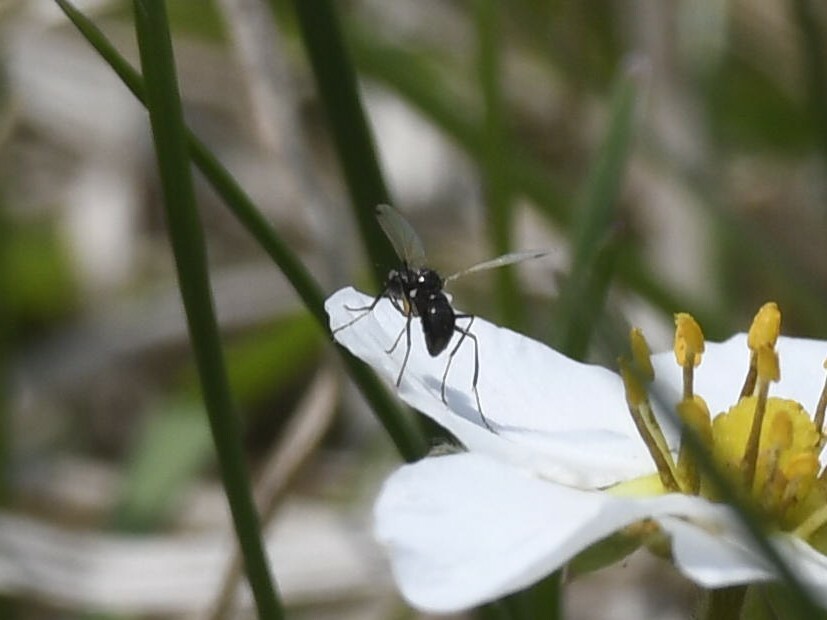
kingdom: Animalia
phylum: Arthropoda
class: Insecta
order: Diptera
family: Sepsidae
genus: Parapalaeosepsis
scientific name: Parapalaeosepsis plebeia
